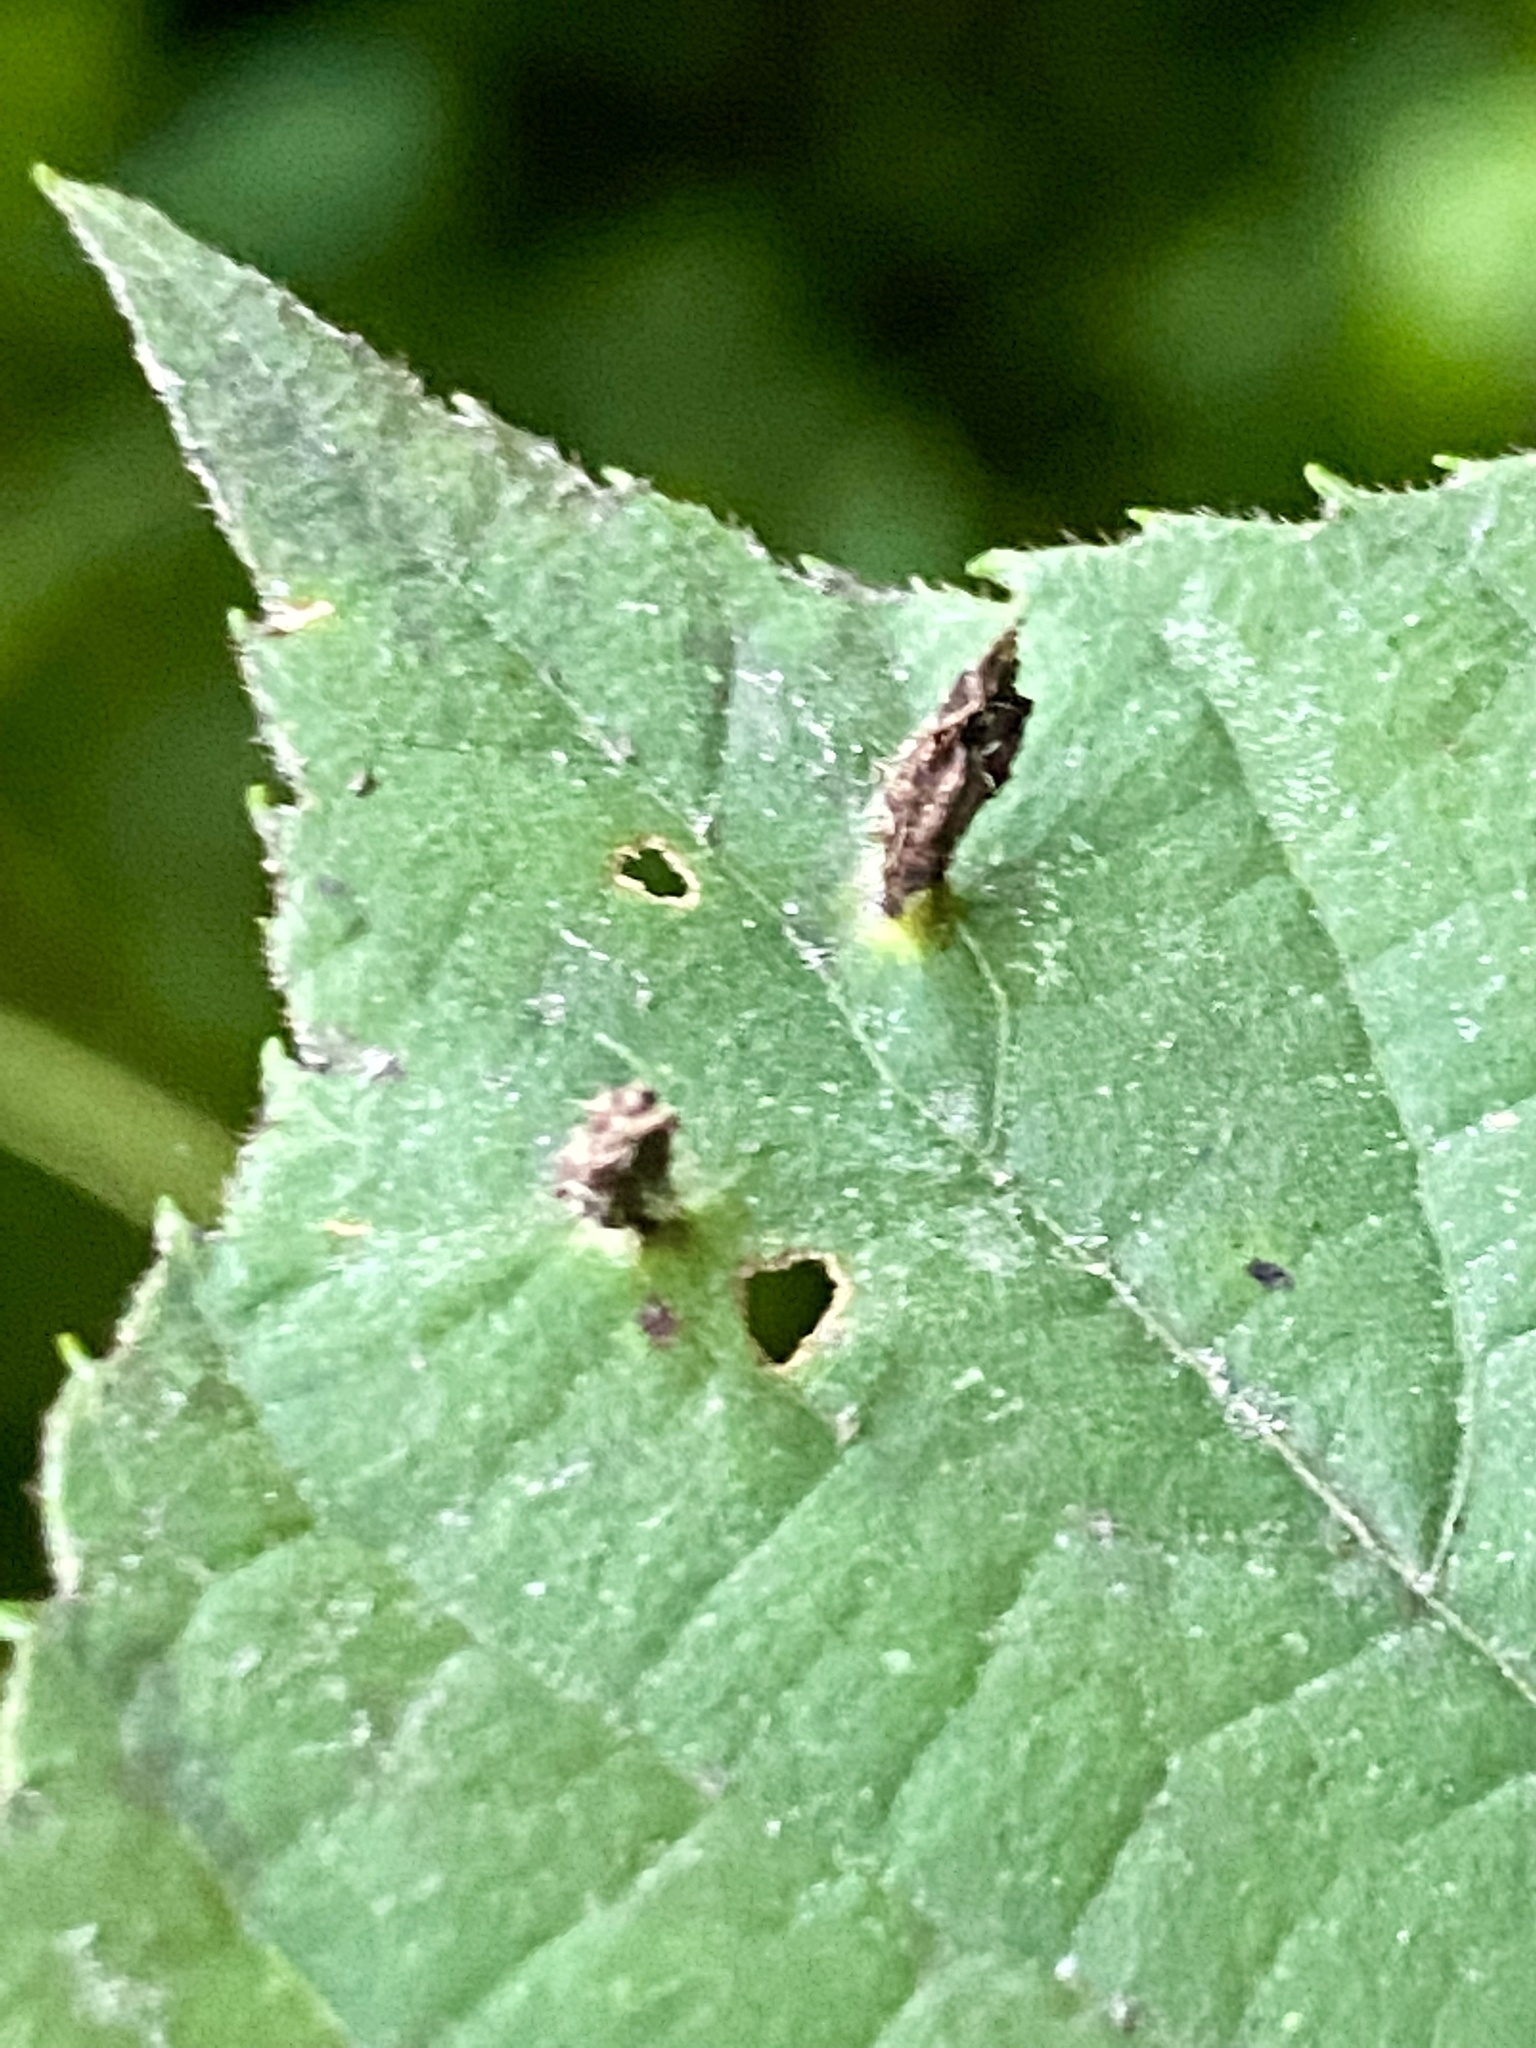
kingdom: Animalia
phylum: Arthropoda
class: Arachnida
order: Trombidiformes
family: Eriophyidae
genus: Eriophyes
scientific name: Eriophyes tiliae
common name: Red nail gall mite
